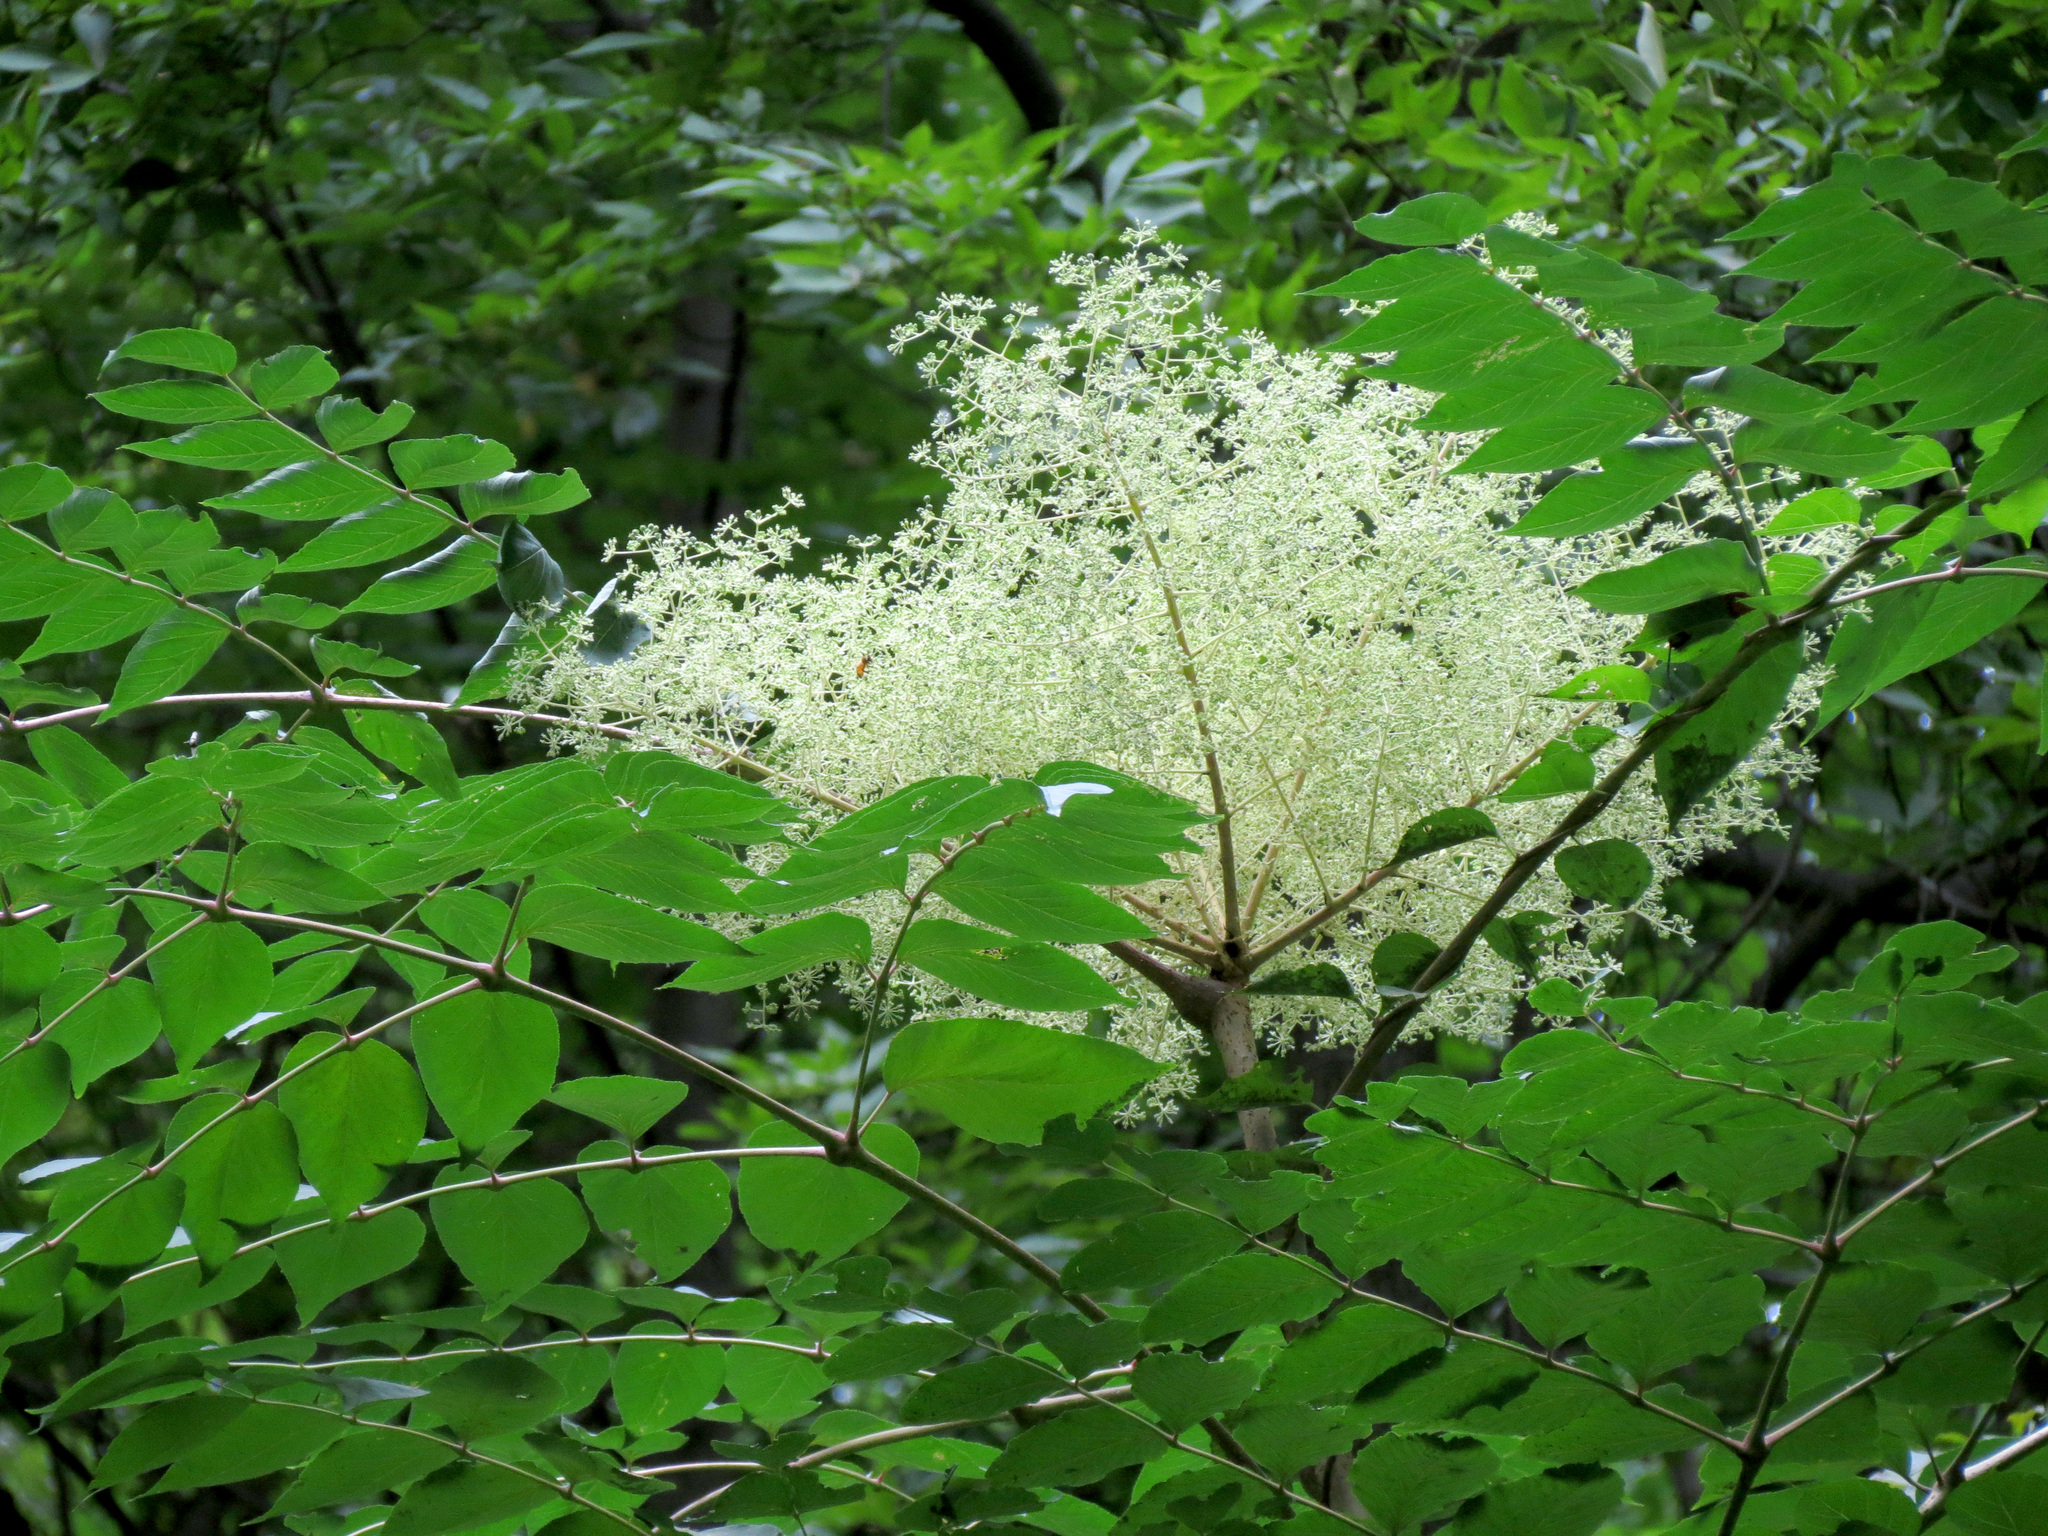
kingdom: Plantae
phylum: Tracheophyta
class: Magnoliopsida
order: Apiales
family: Araliaceae
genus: Aralia
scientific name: Aralia elata
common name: Japanese angelica-tree
